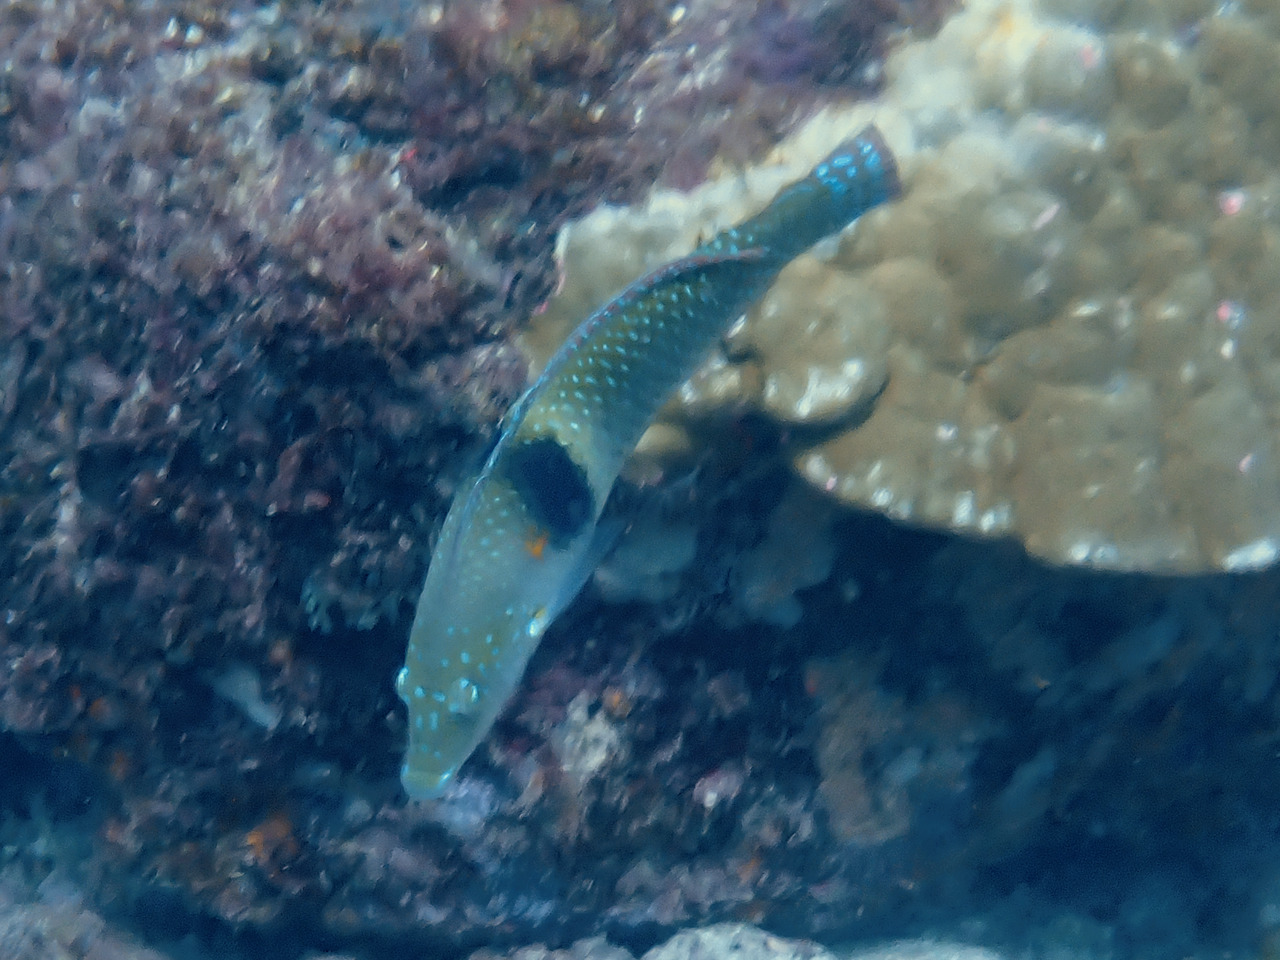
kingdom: Animalia
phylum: Chordata
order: Perciformes
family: Labridae
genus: Halichoeres
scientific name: Halichoeres nicholsi
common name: Spinster wrasse
